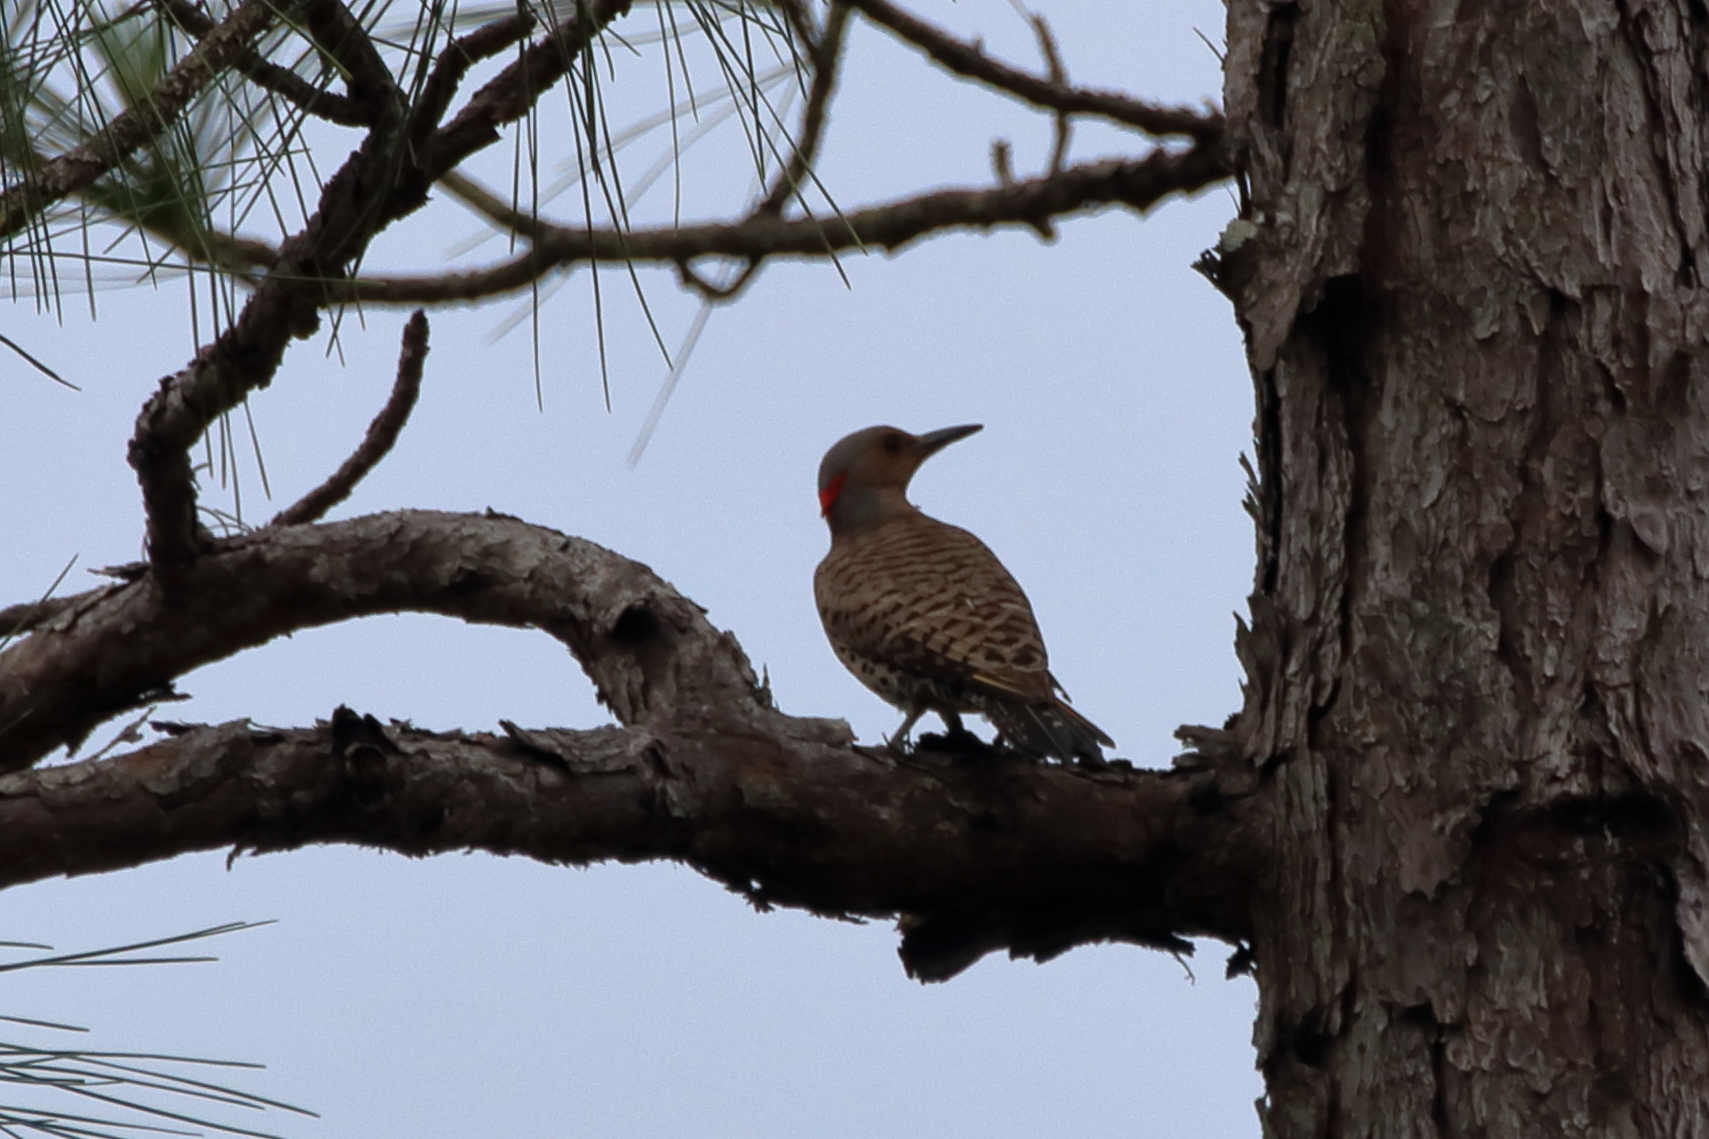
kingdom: Animalia
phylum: Chordata
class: Aves
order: Piciformes
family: Picidae
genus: Colaptes
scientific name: Colaptes auratus
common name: Northern flicker
